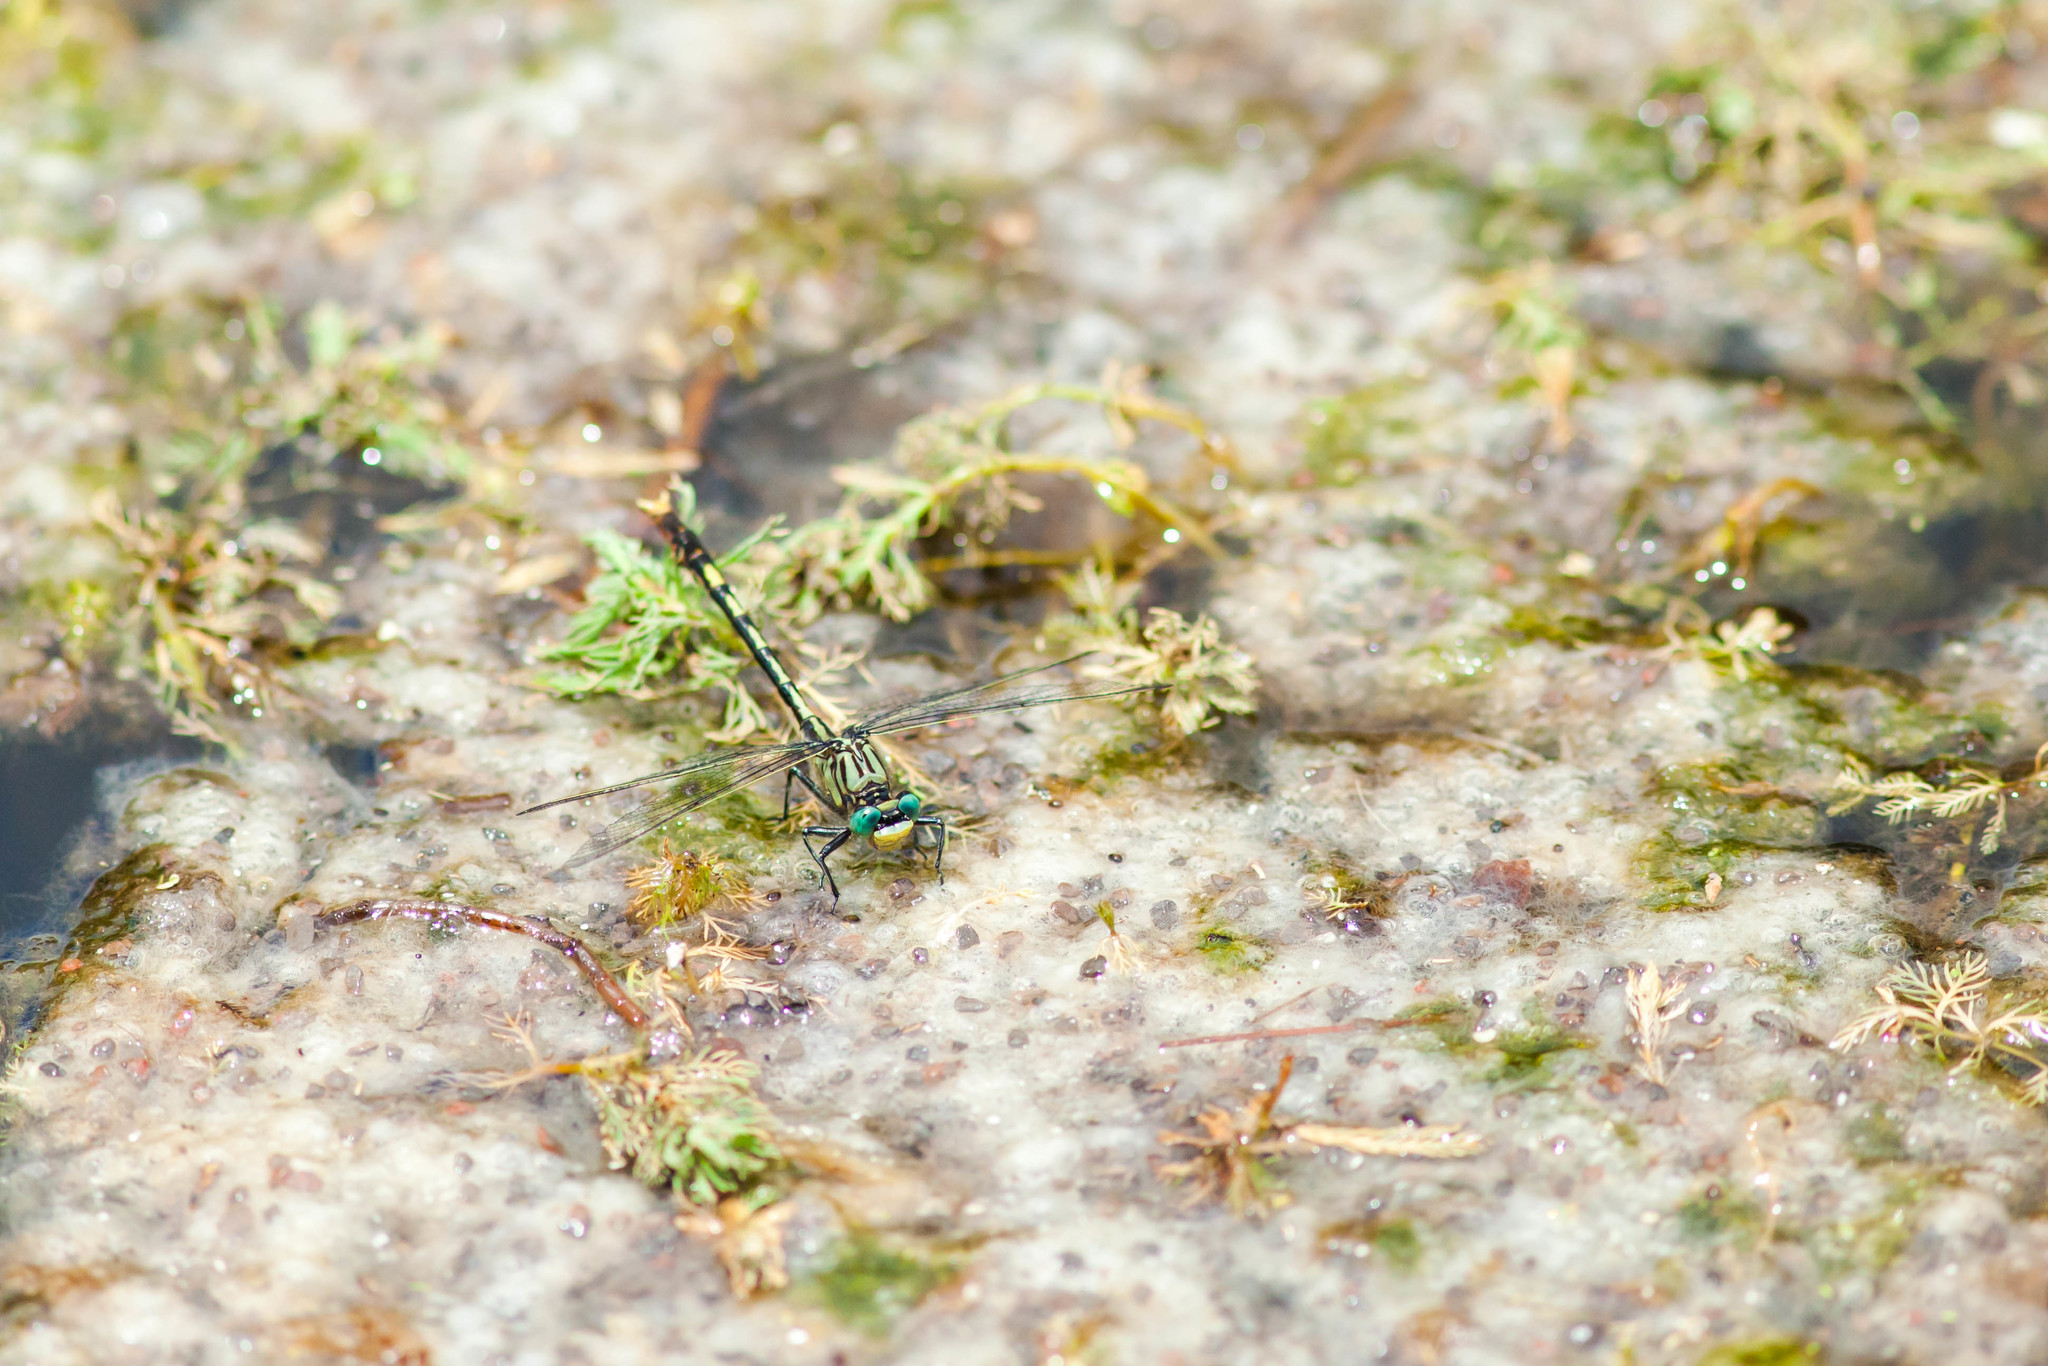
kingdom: Animalia
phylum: Arthropoda
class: Insecta
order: Odonata
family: Gomphidae
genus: Arigomphus
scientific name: Arigomphus villosipes
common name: Unicorn clubtail
